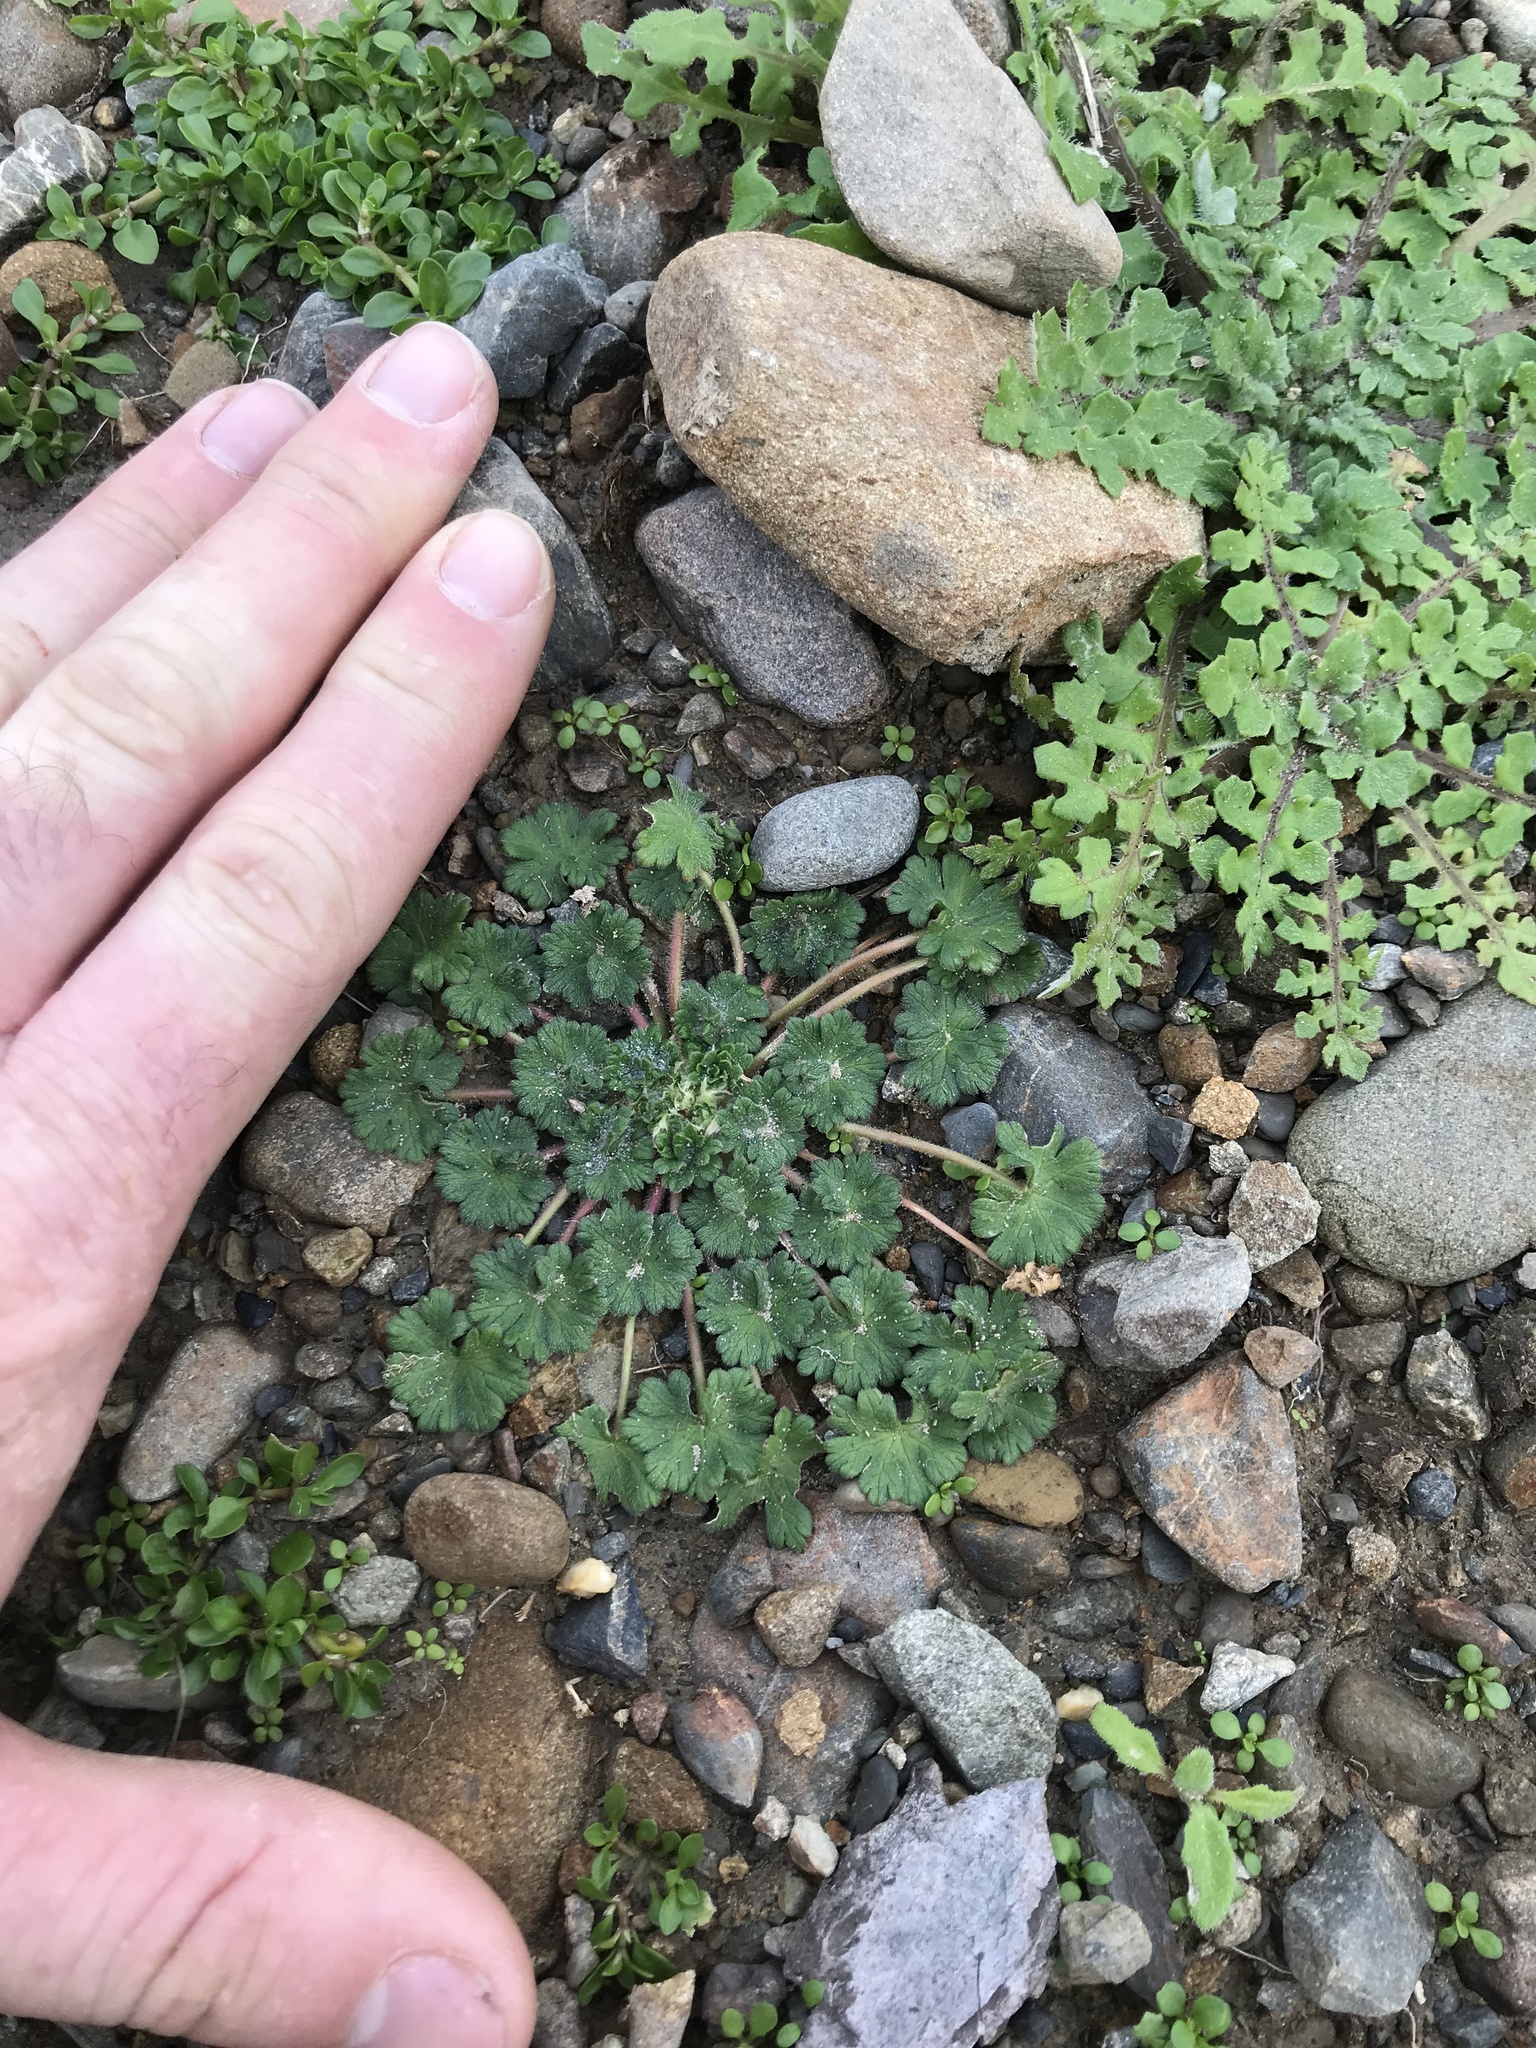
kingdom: Plantae
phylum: Tracheophyta
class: Magnoliopsida
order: Geraniales
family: Geraniaceae
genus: Geranium
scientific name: Geranium molle
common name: Dove's-foot crane's-bill
